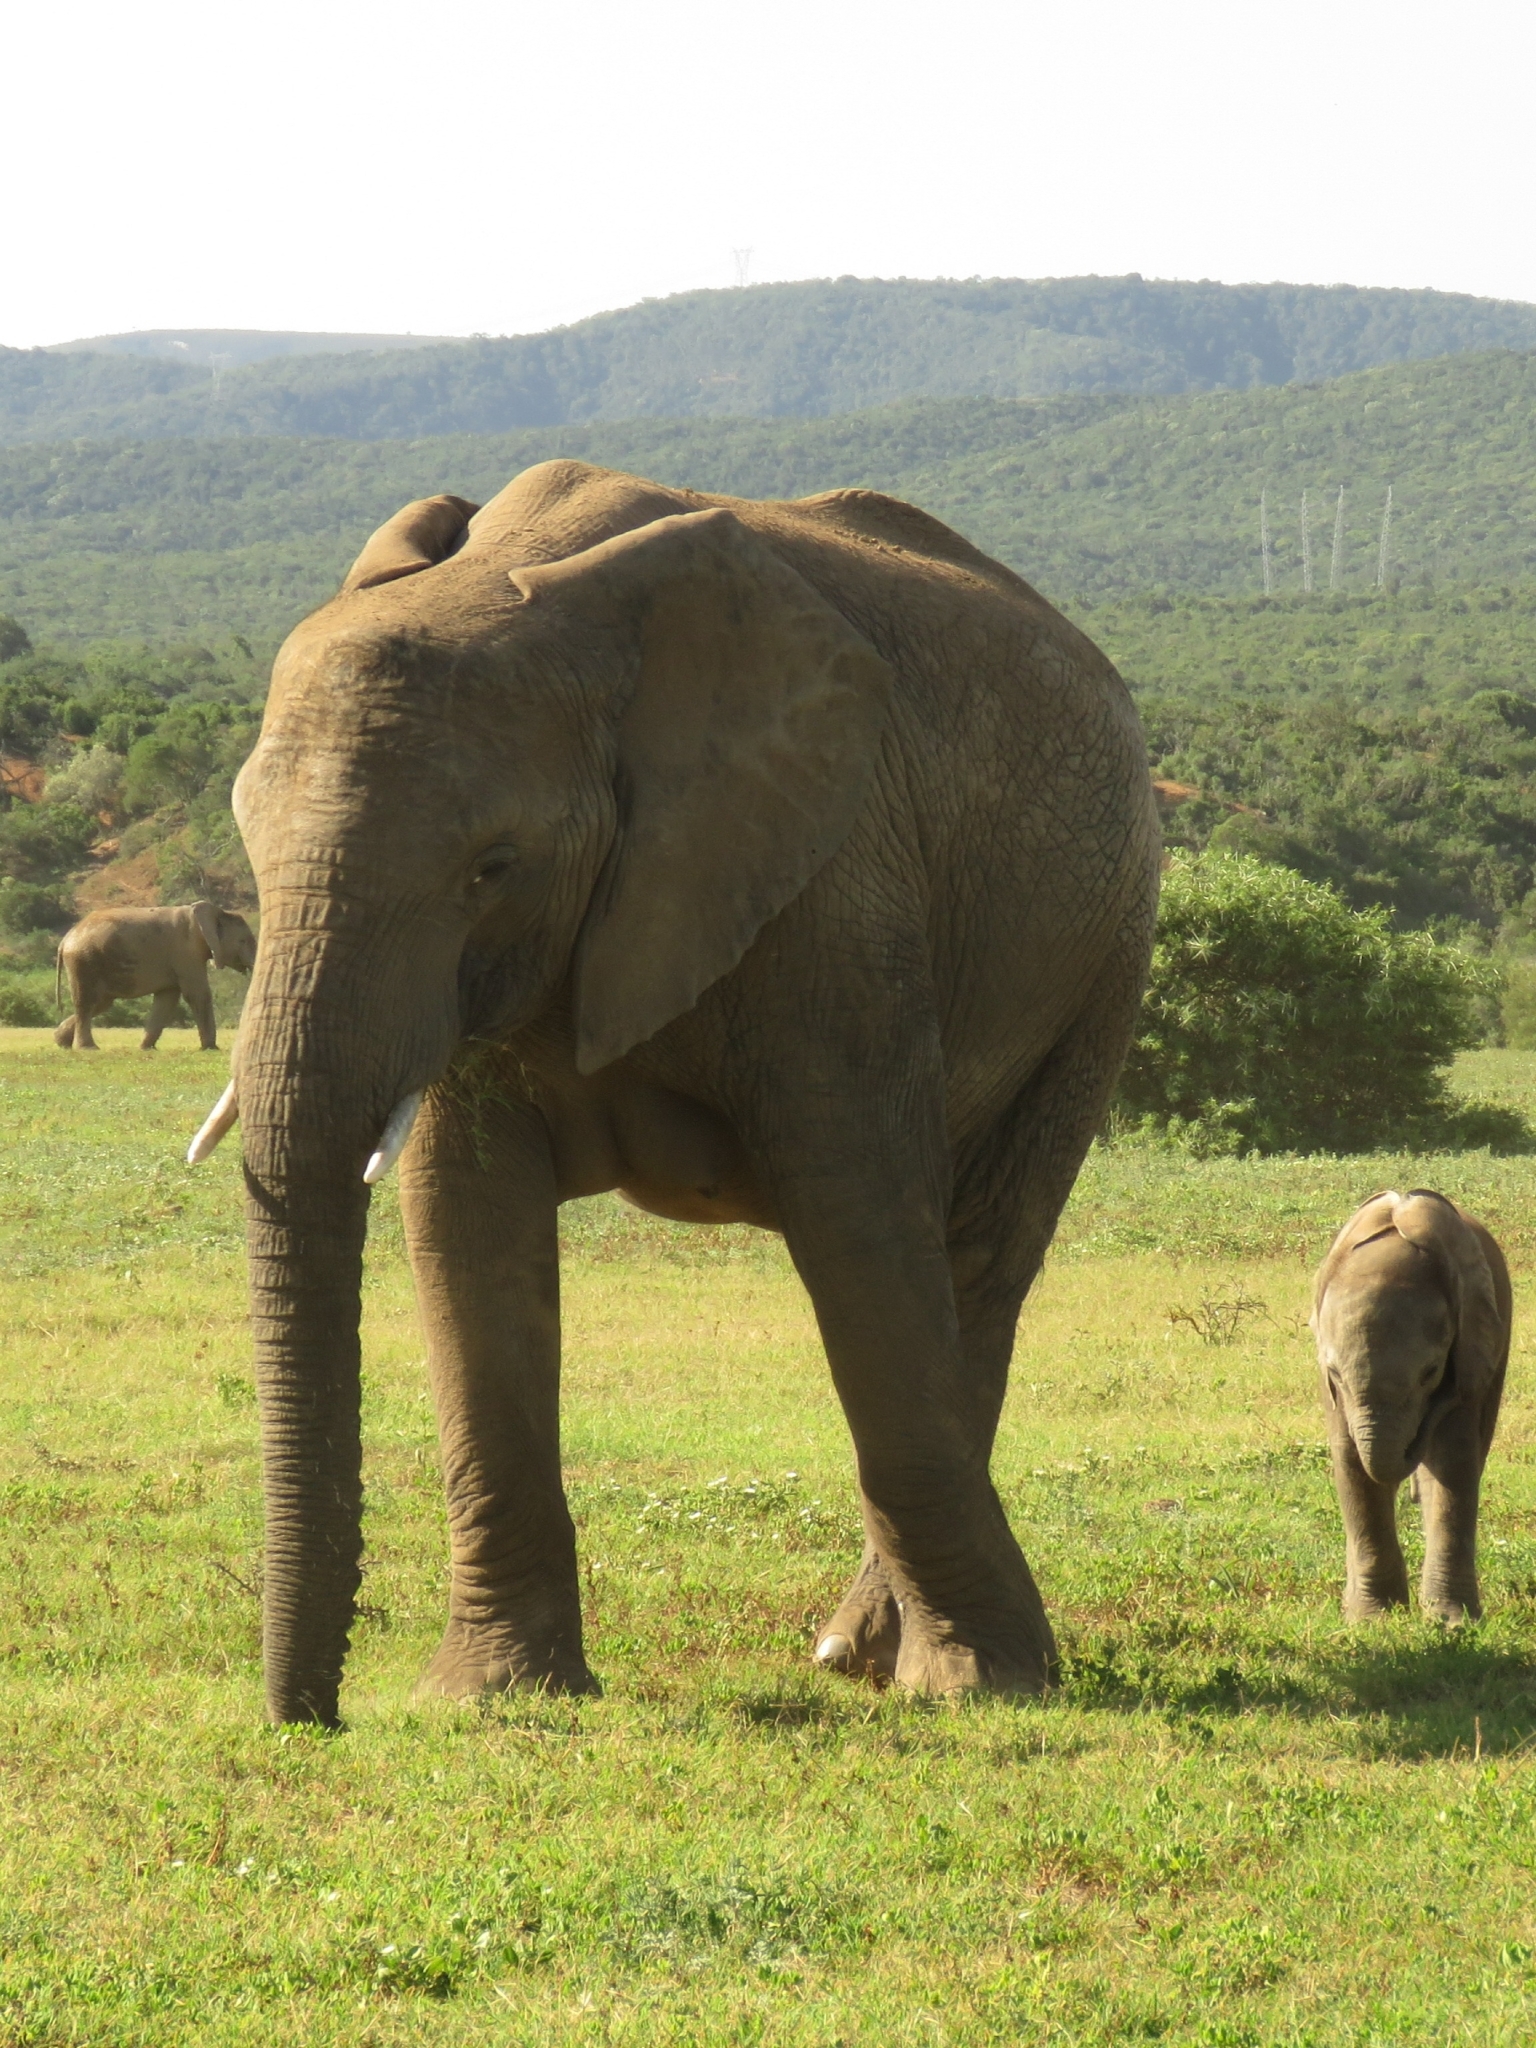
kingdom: Animalia
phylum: Chordata
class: Mammalia
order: Proboscidea
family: Elephantidae
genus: Loxodonta
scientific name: Loxodonta africana
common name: African elephant
